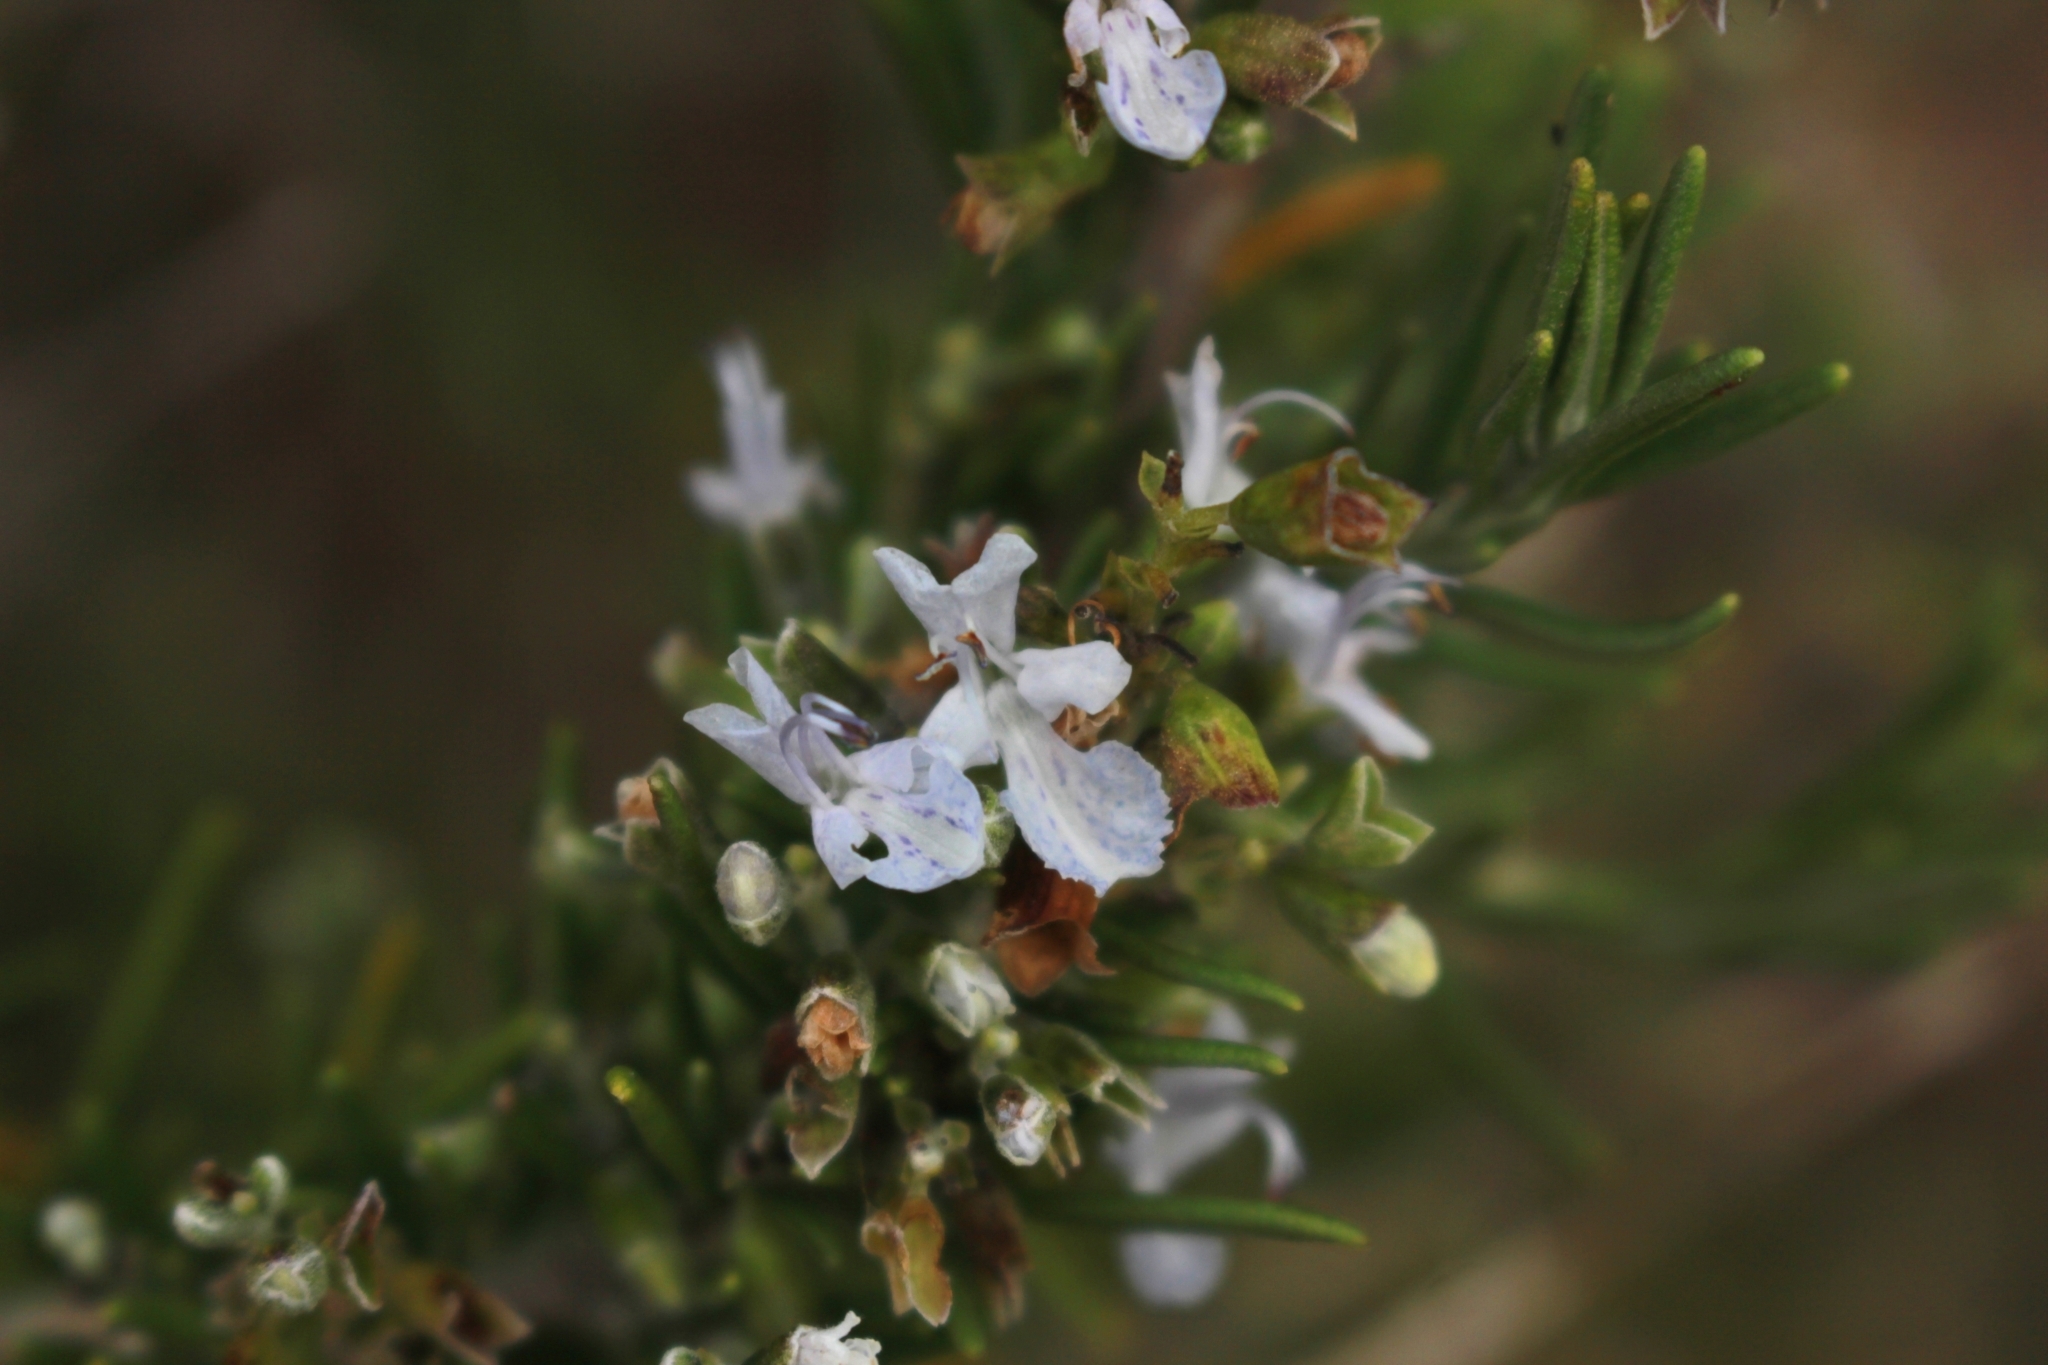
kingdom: Plantae
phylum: Tracheophyta
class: Magnoliopsida
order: Lamiales
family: Lamiaceae
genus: Salvia
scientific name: Salvia rosmarinus
